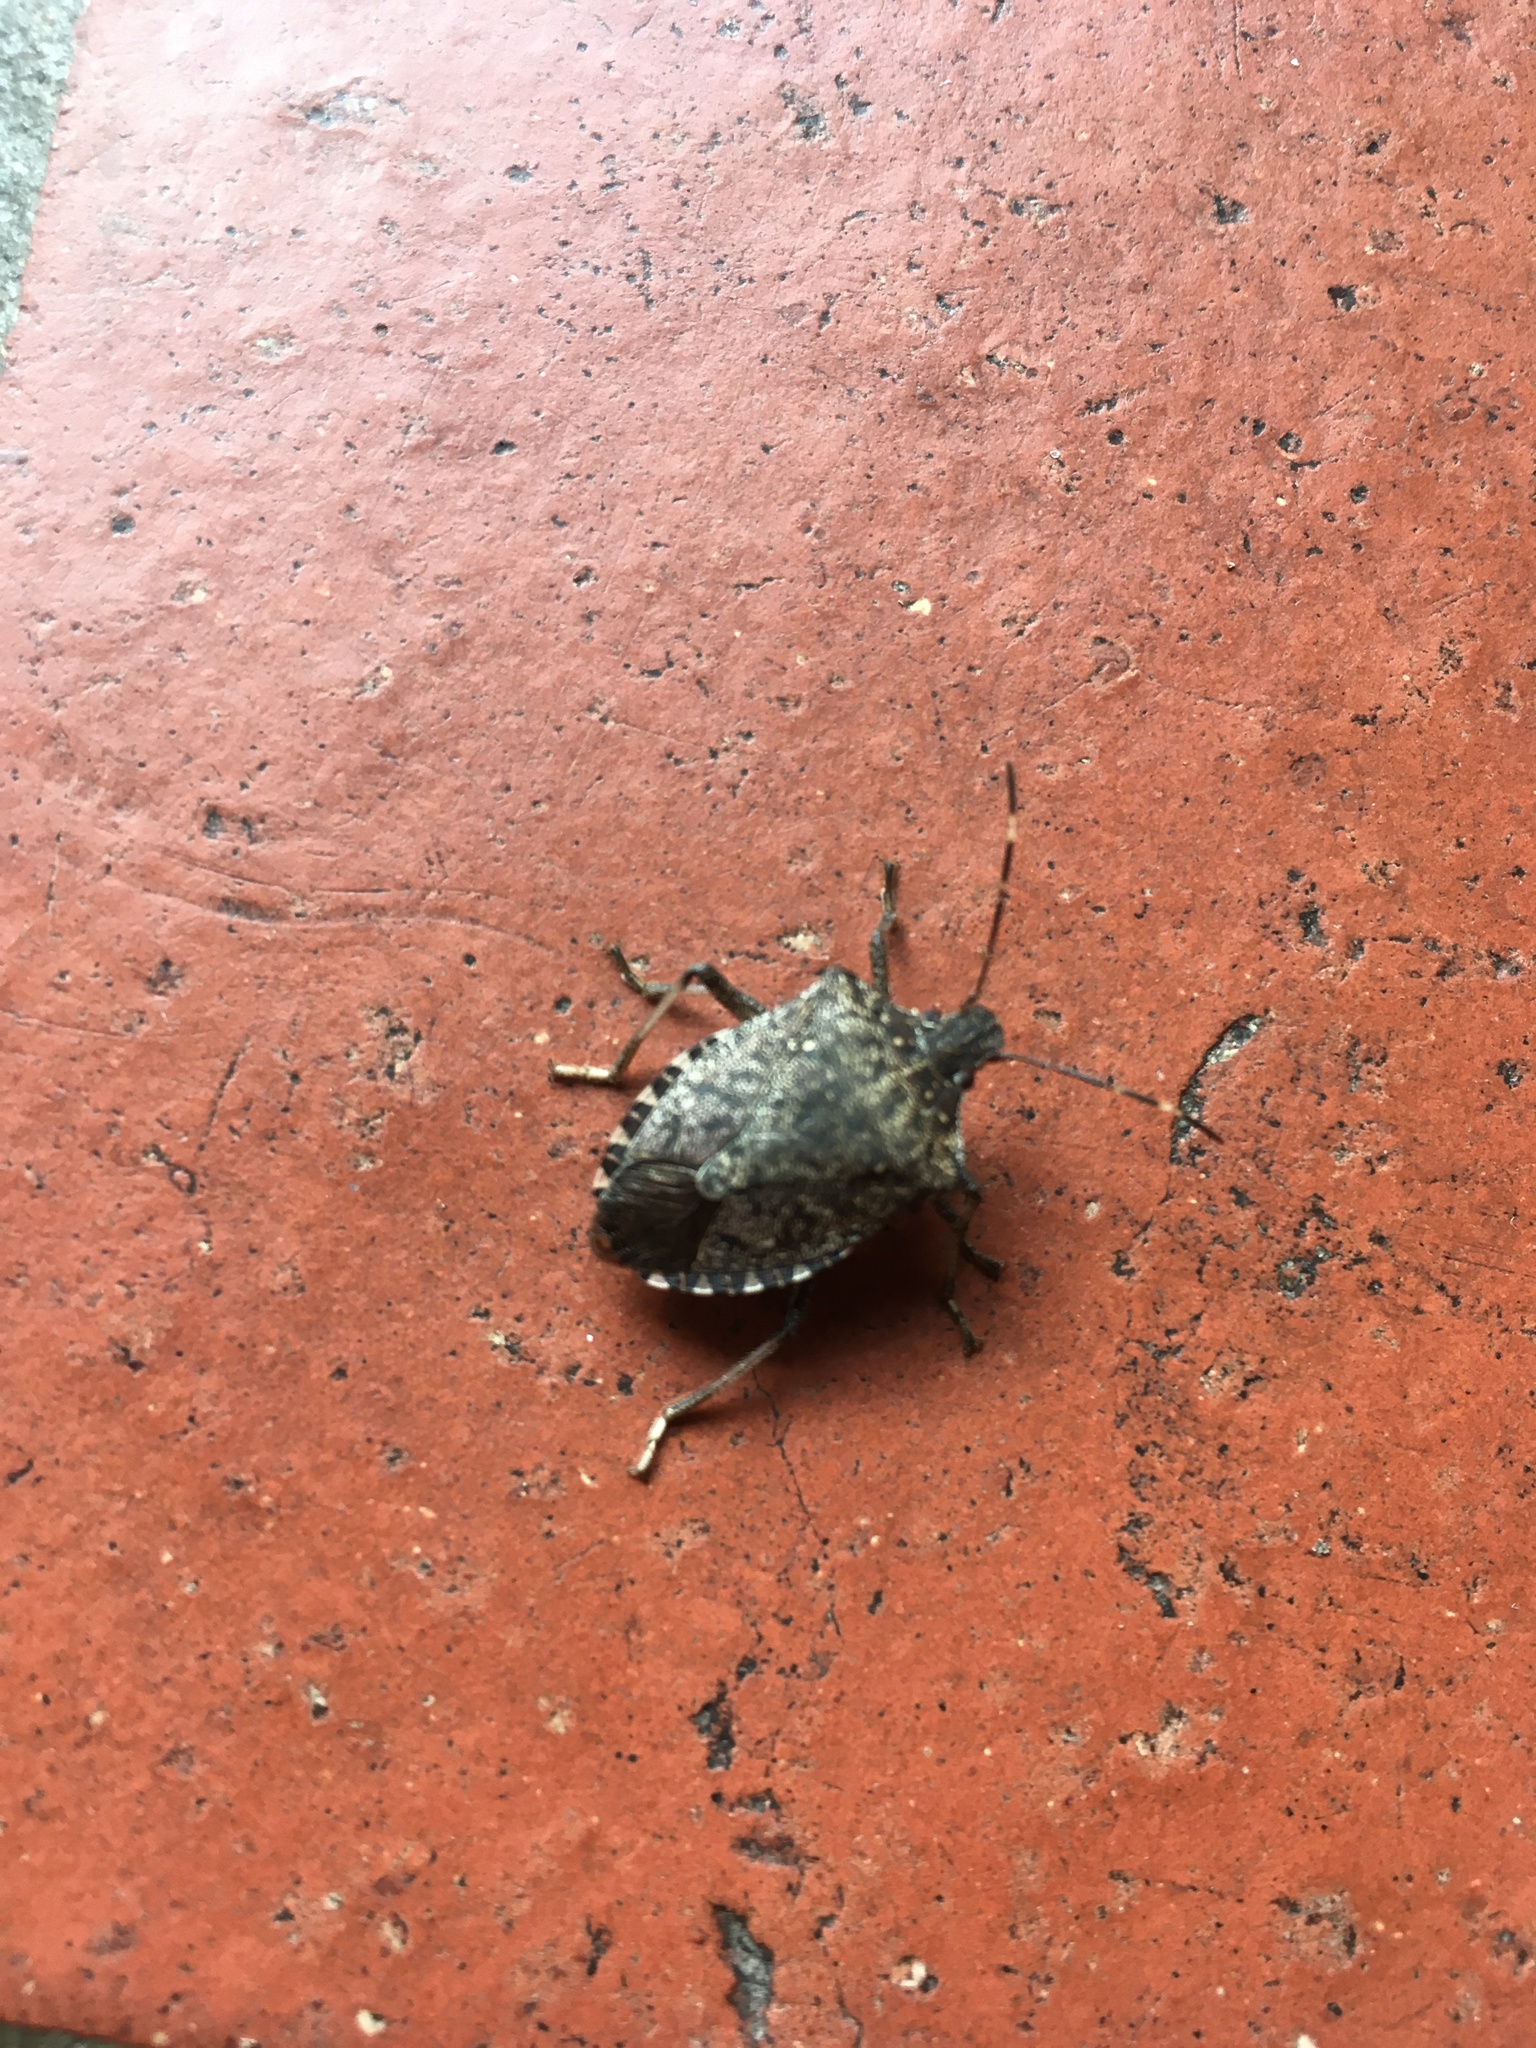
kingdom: Animalia
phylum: Arthropoda
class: Insecta
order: Hemiptera
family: Pentatomidae
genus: Halyomorpha
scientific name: Halyomorpha halys
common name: Brown marmorated stink bug
